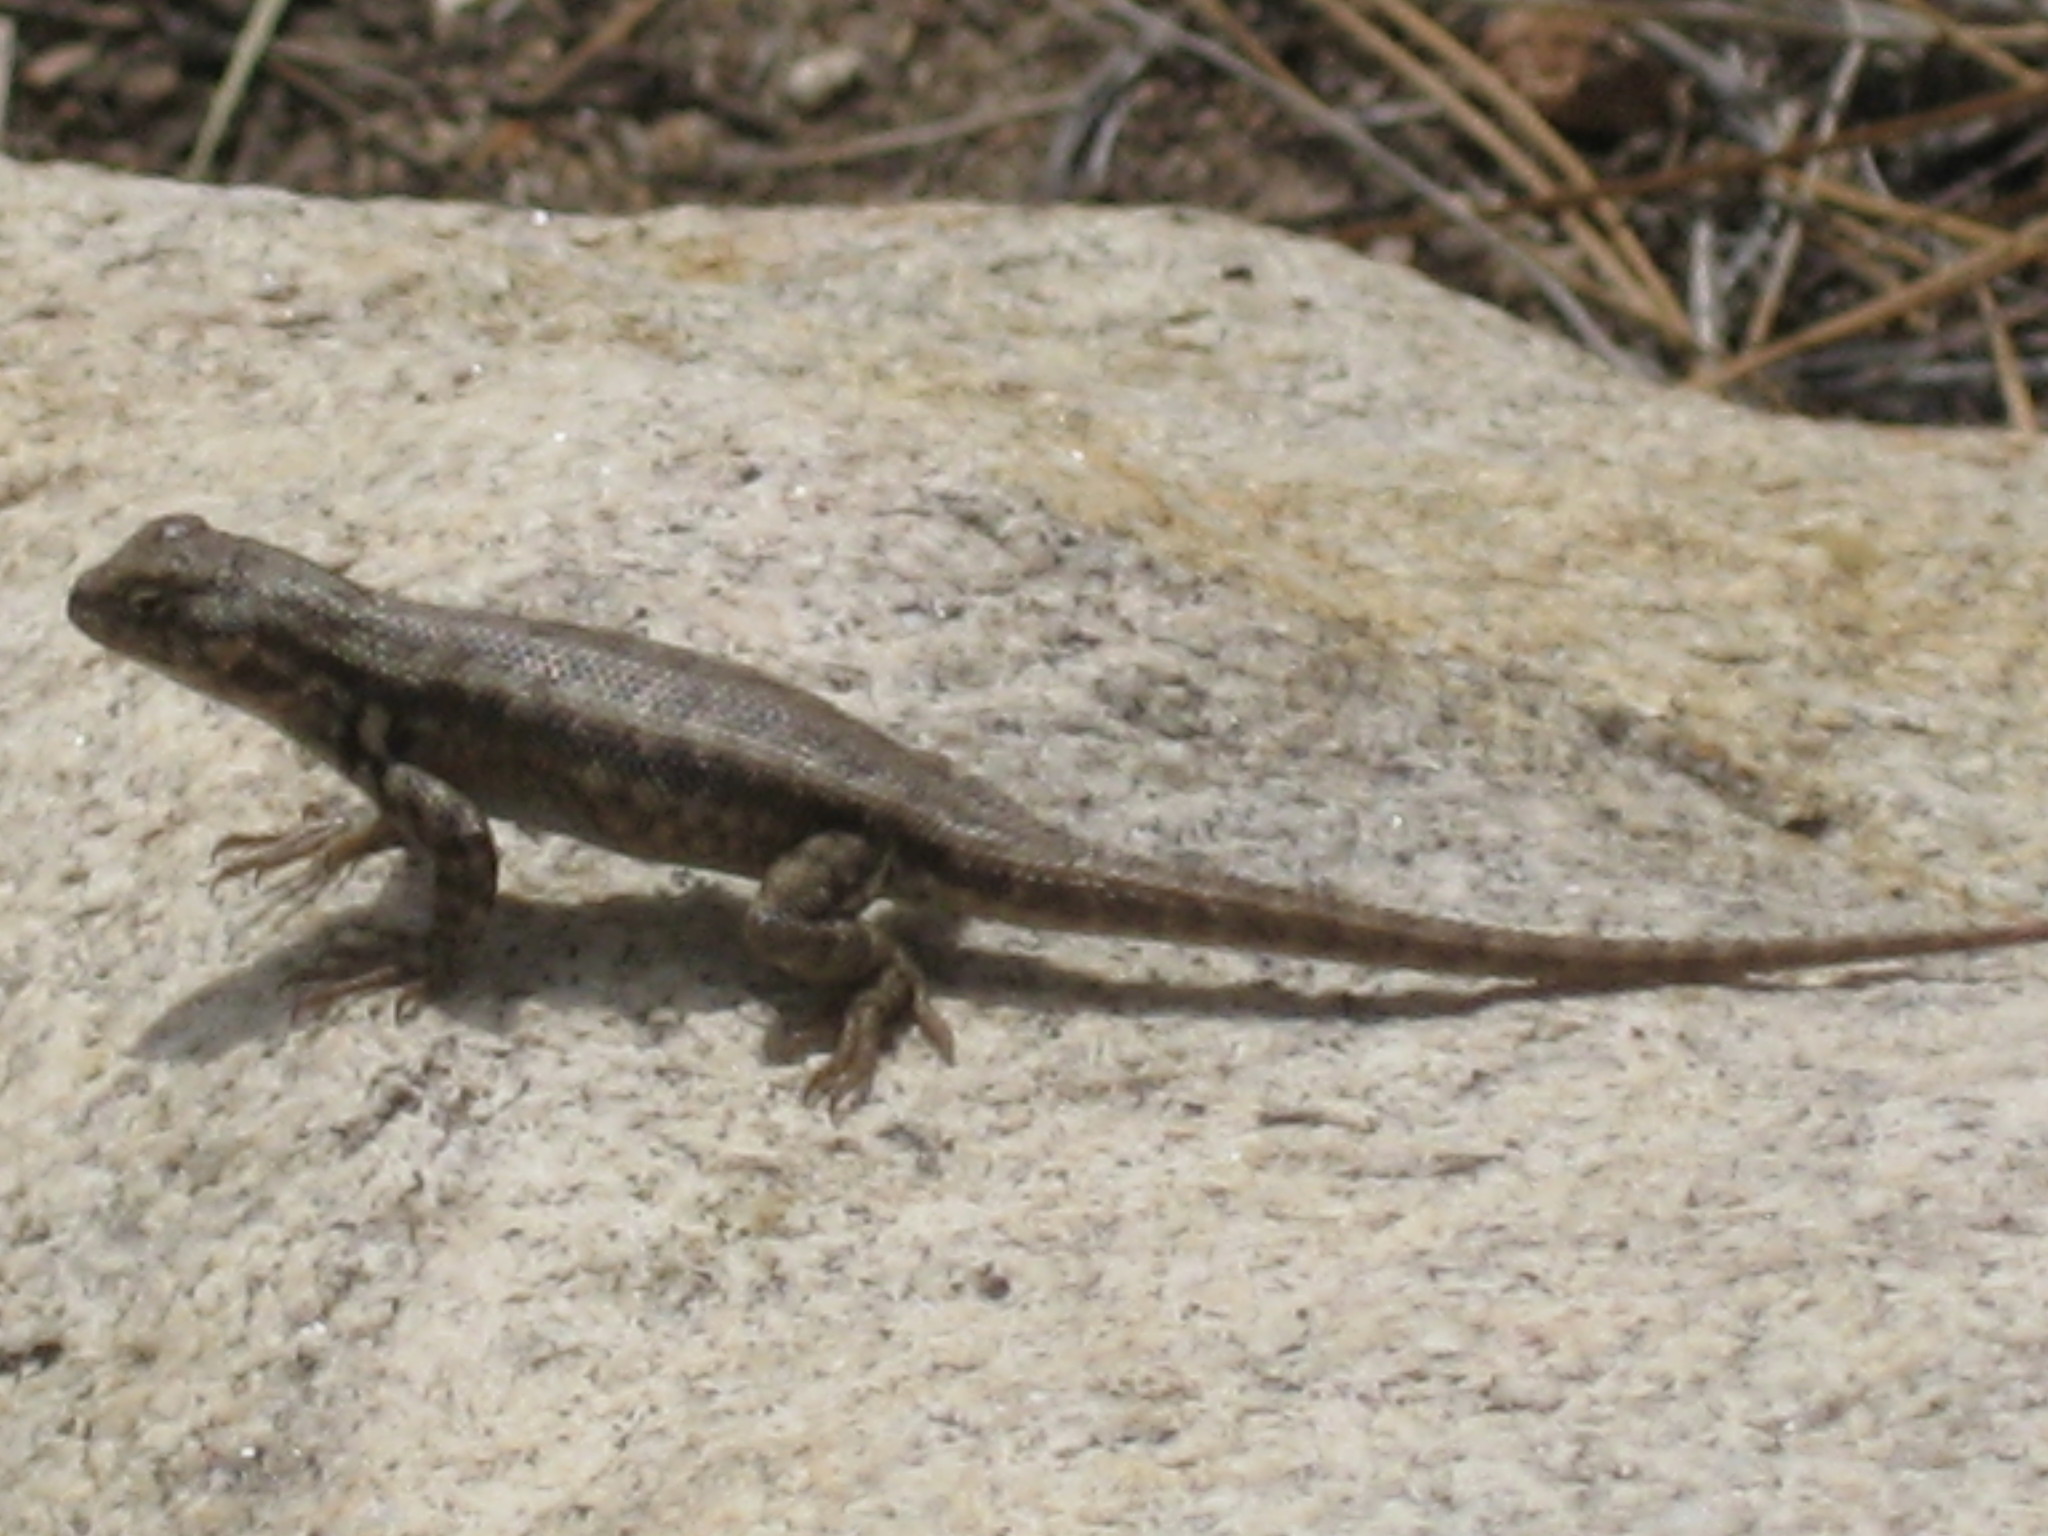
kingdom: Animalia
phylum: Chordata
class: Squamata
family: Phrynosomatidae
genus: Sceloporus
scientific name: Sceloporus graciosus
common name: Sagebrush lizard
